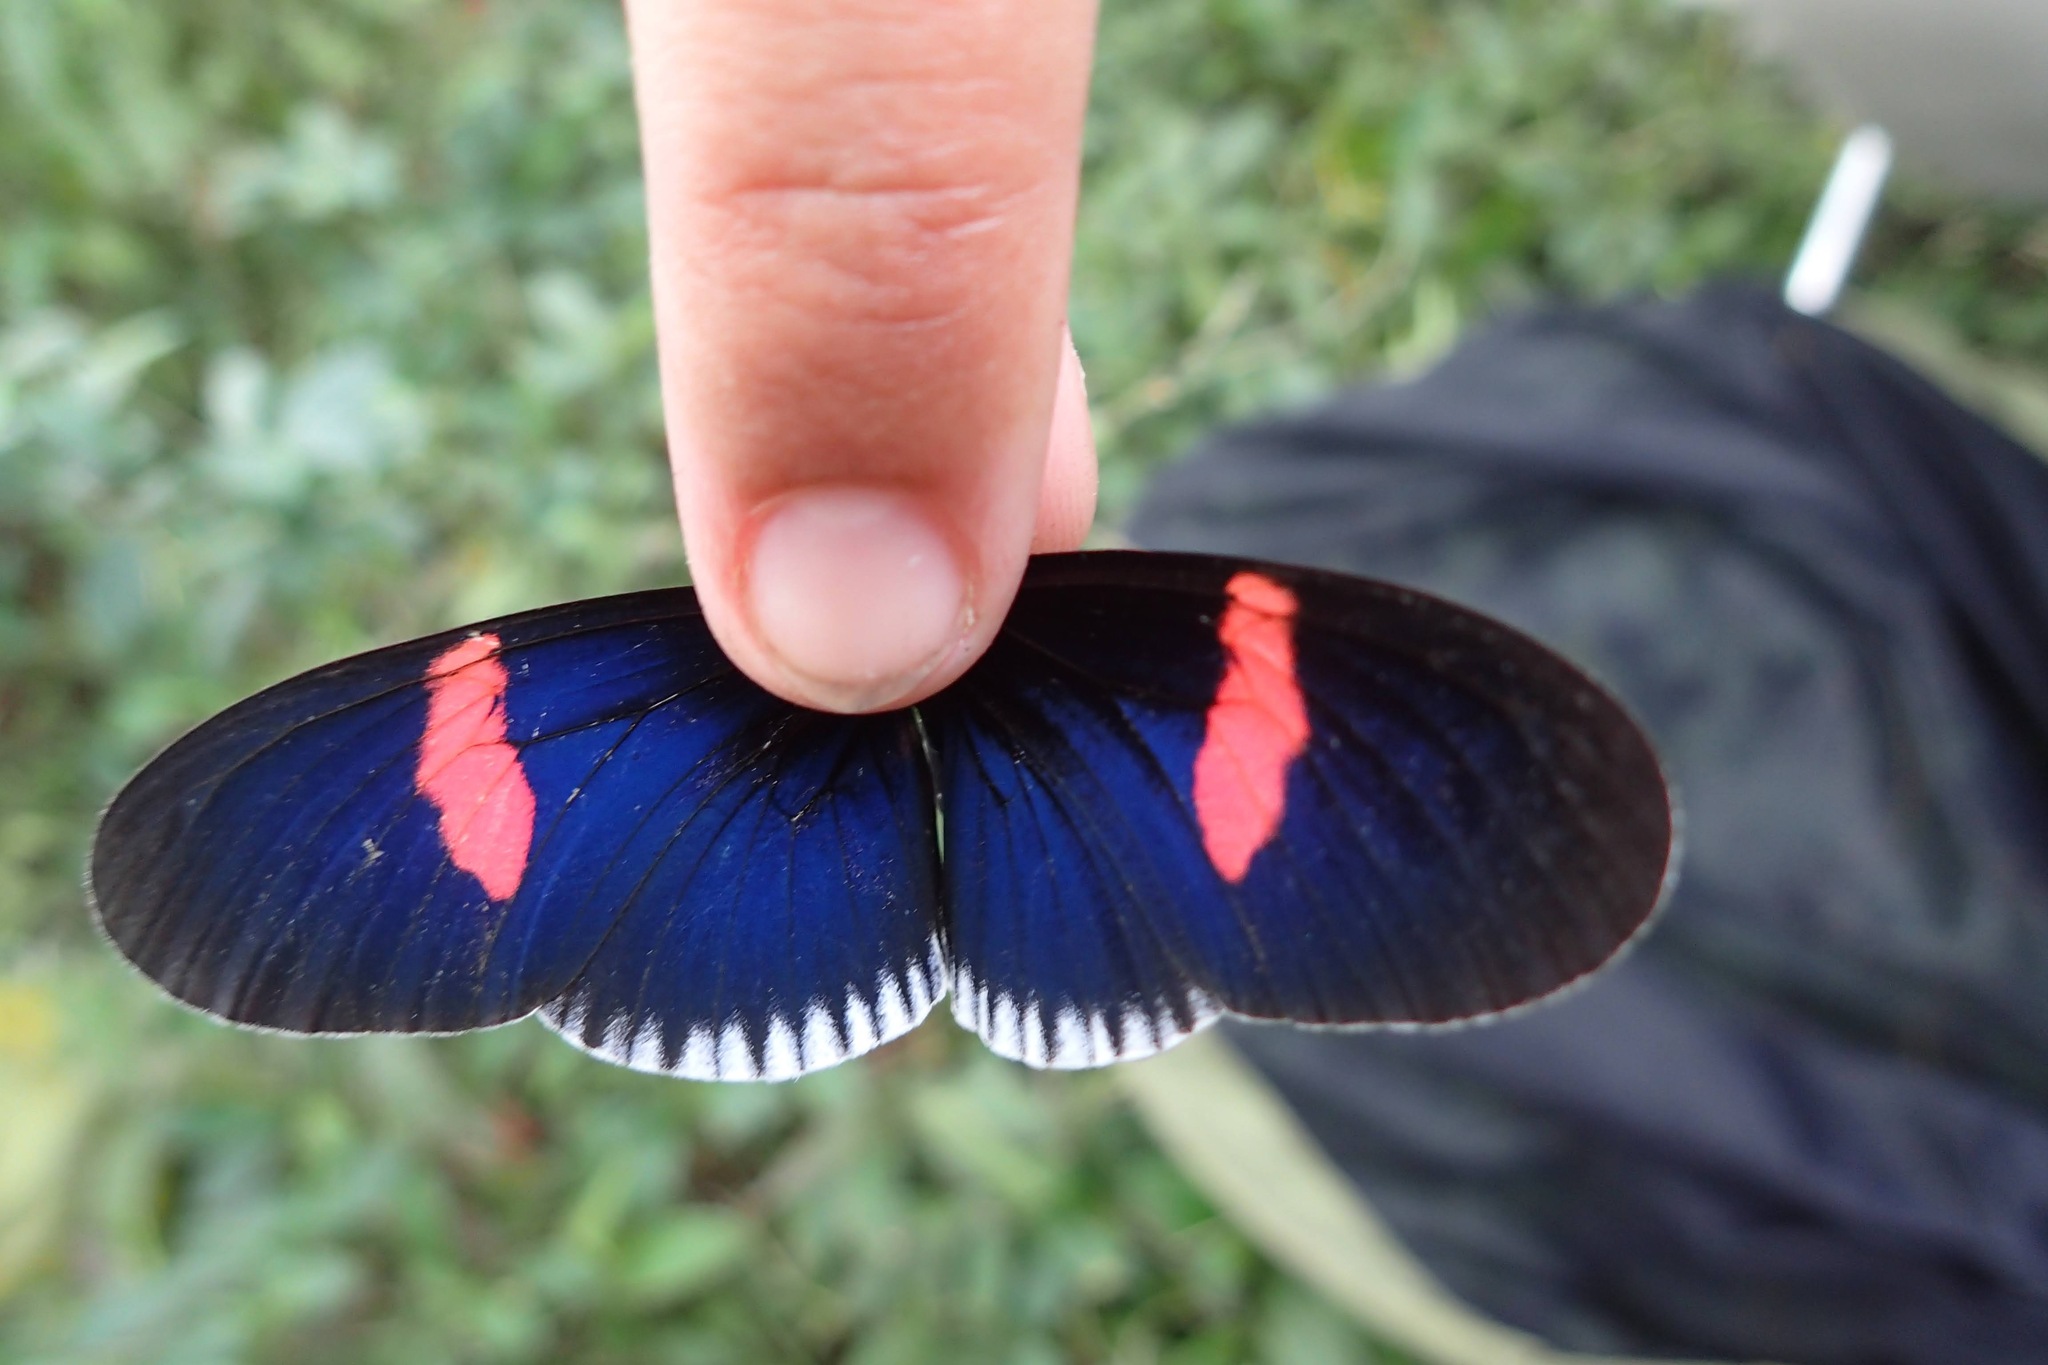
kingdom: Animalia
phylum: Arthropoda
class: Insecta
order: Lepidoptera
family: Nymphalidae
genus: Heliconius
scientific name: Heliconius erato
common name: Common patch longwing
